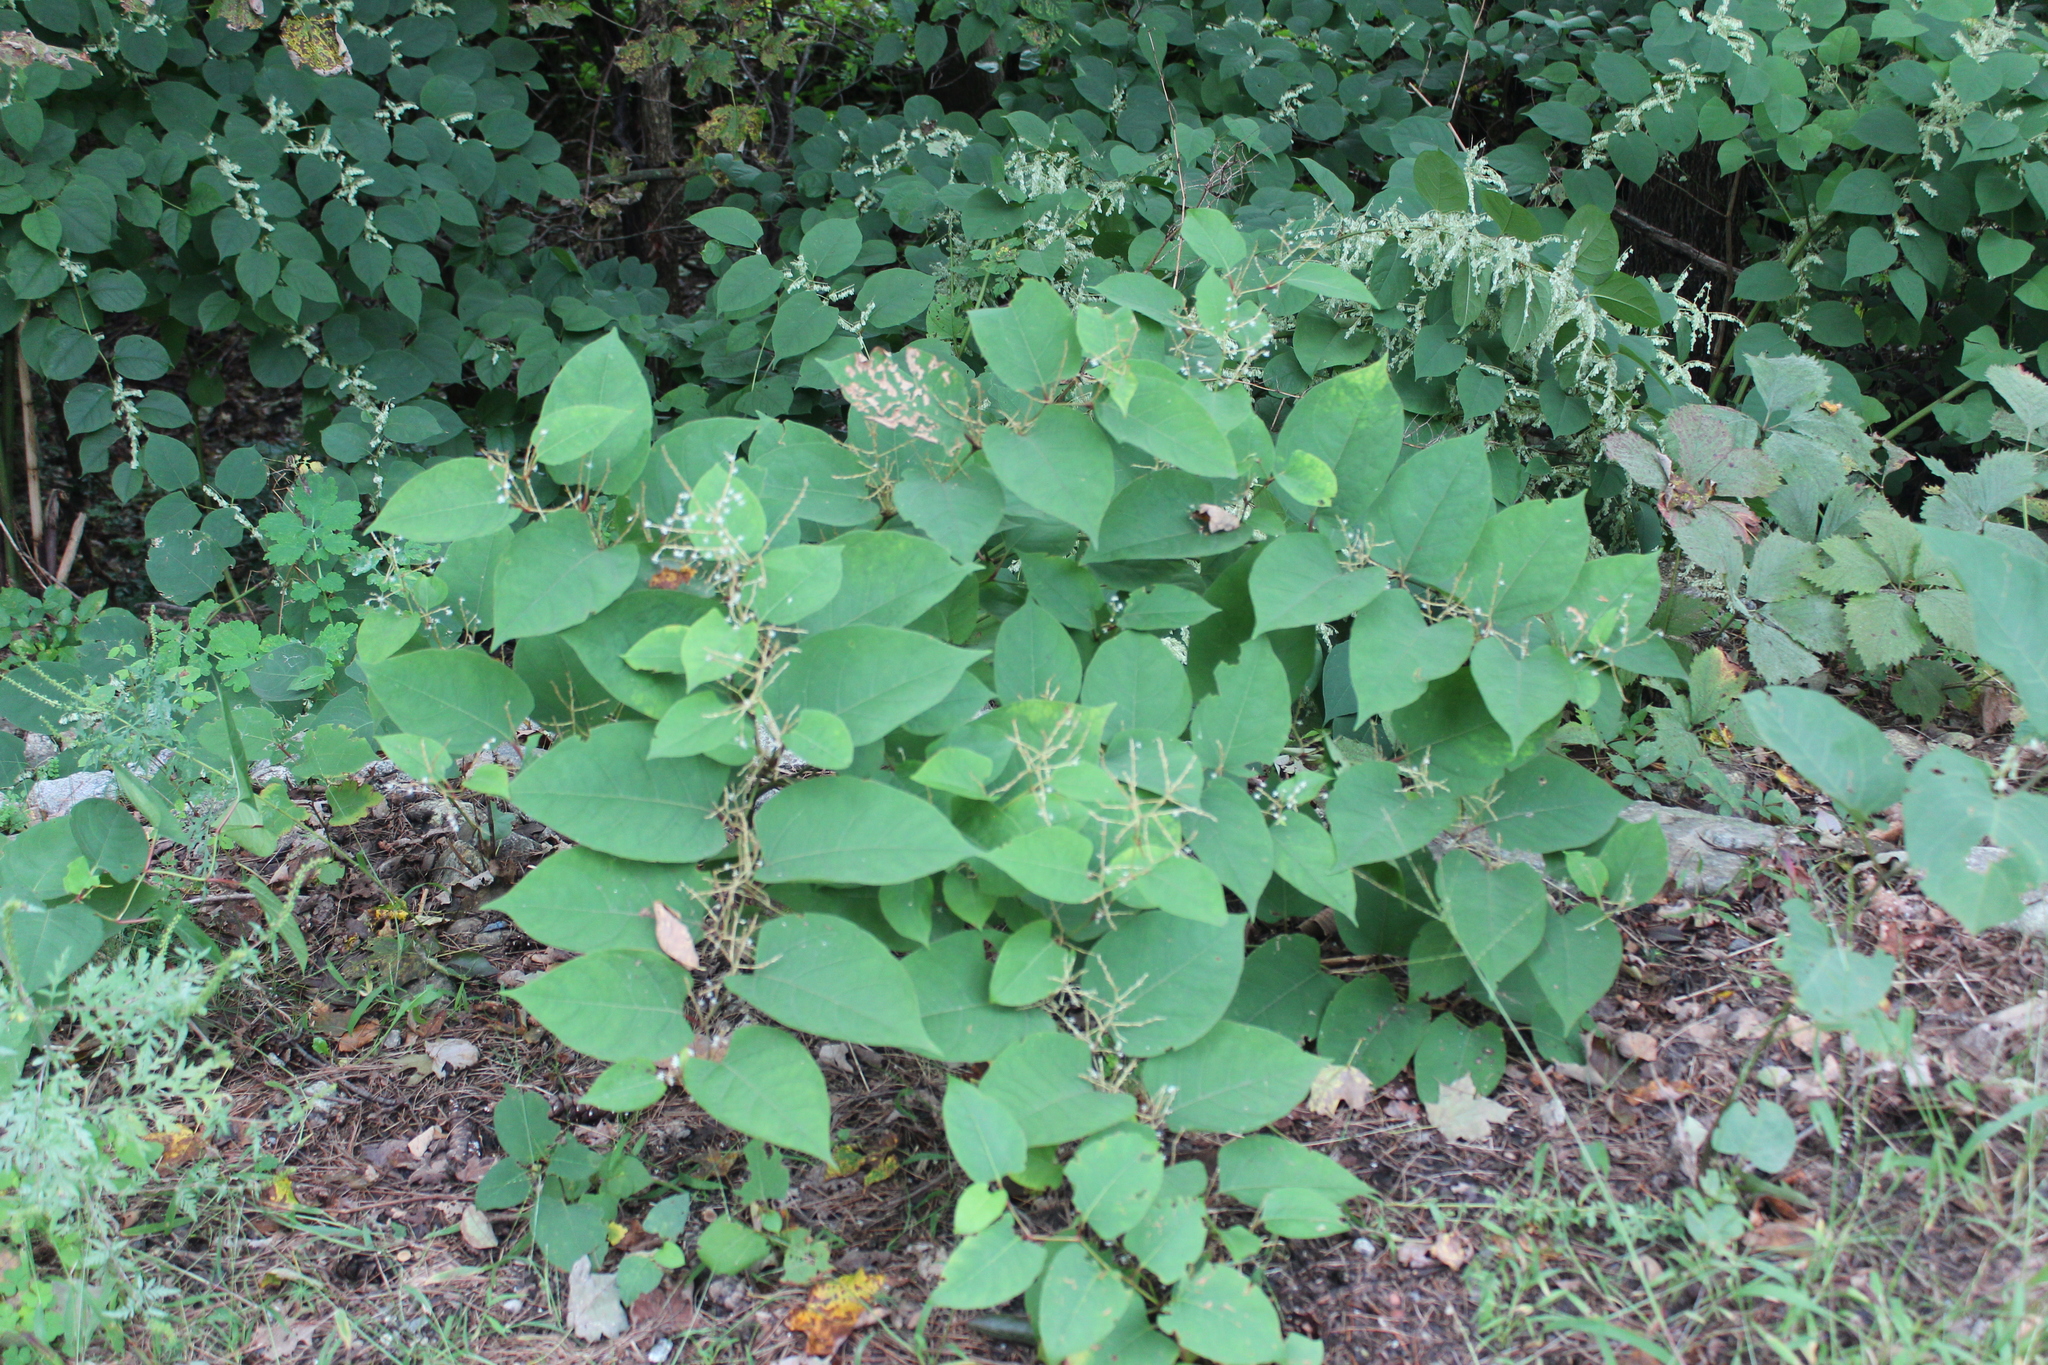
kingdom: Plantae
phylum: Tracheophyta
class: Magnoliopsida
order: Caryophyllales
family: Polygonaceae
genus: Reynoutria
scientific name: Reynoutria japonica
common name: Japanese knotweed
